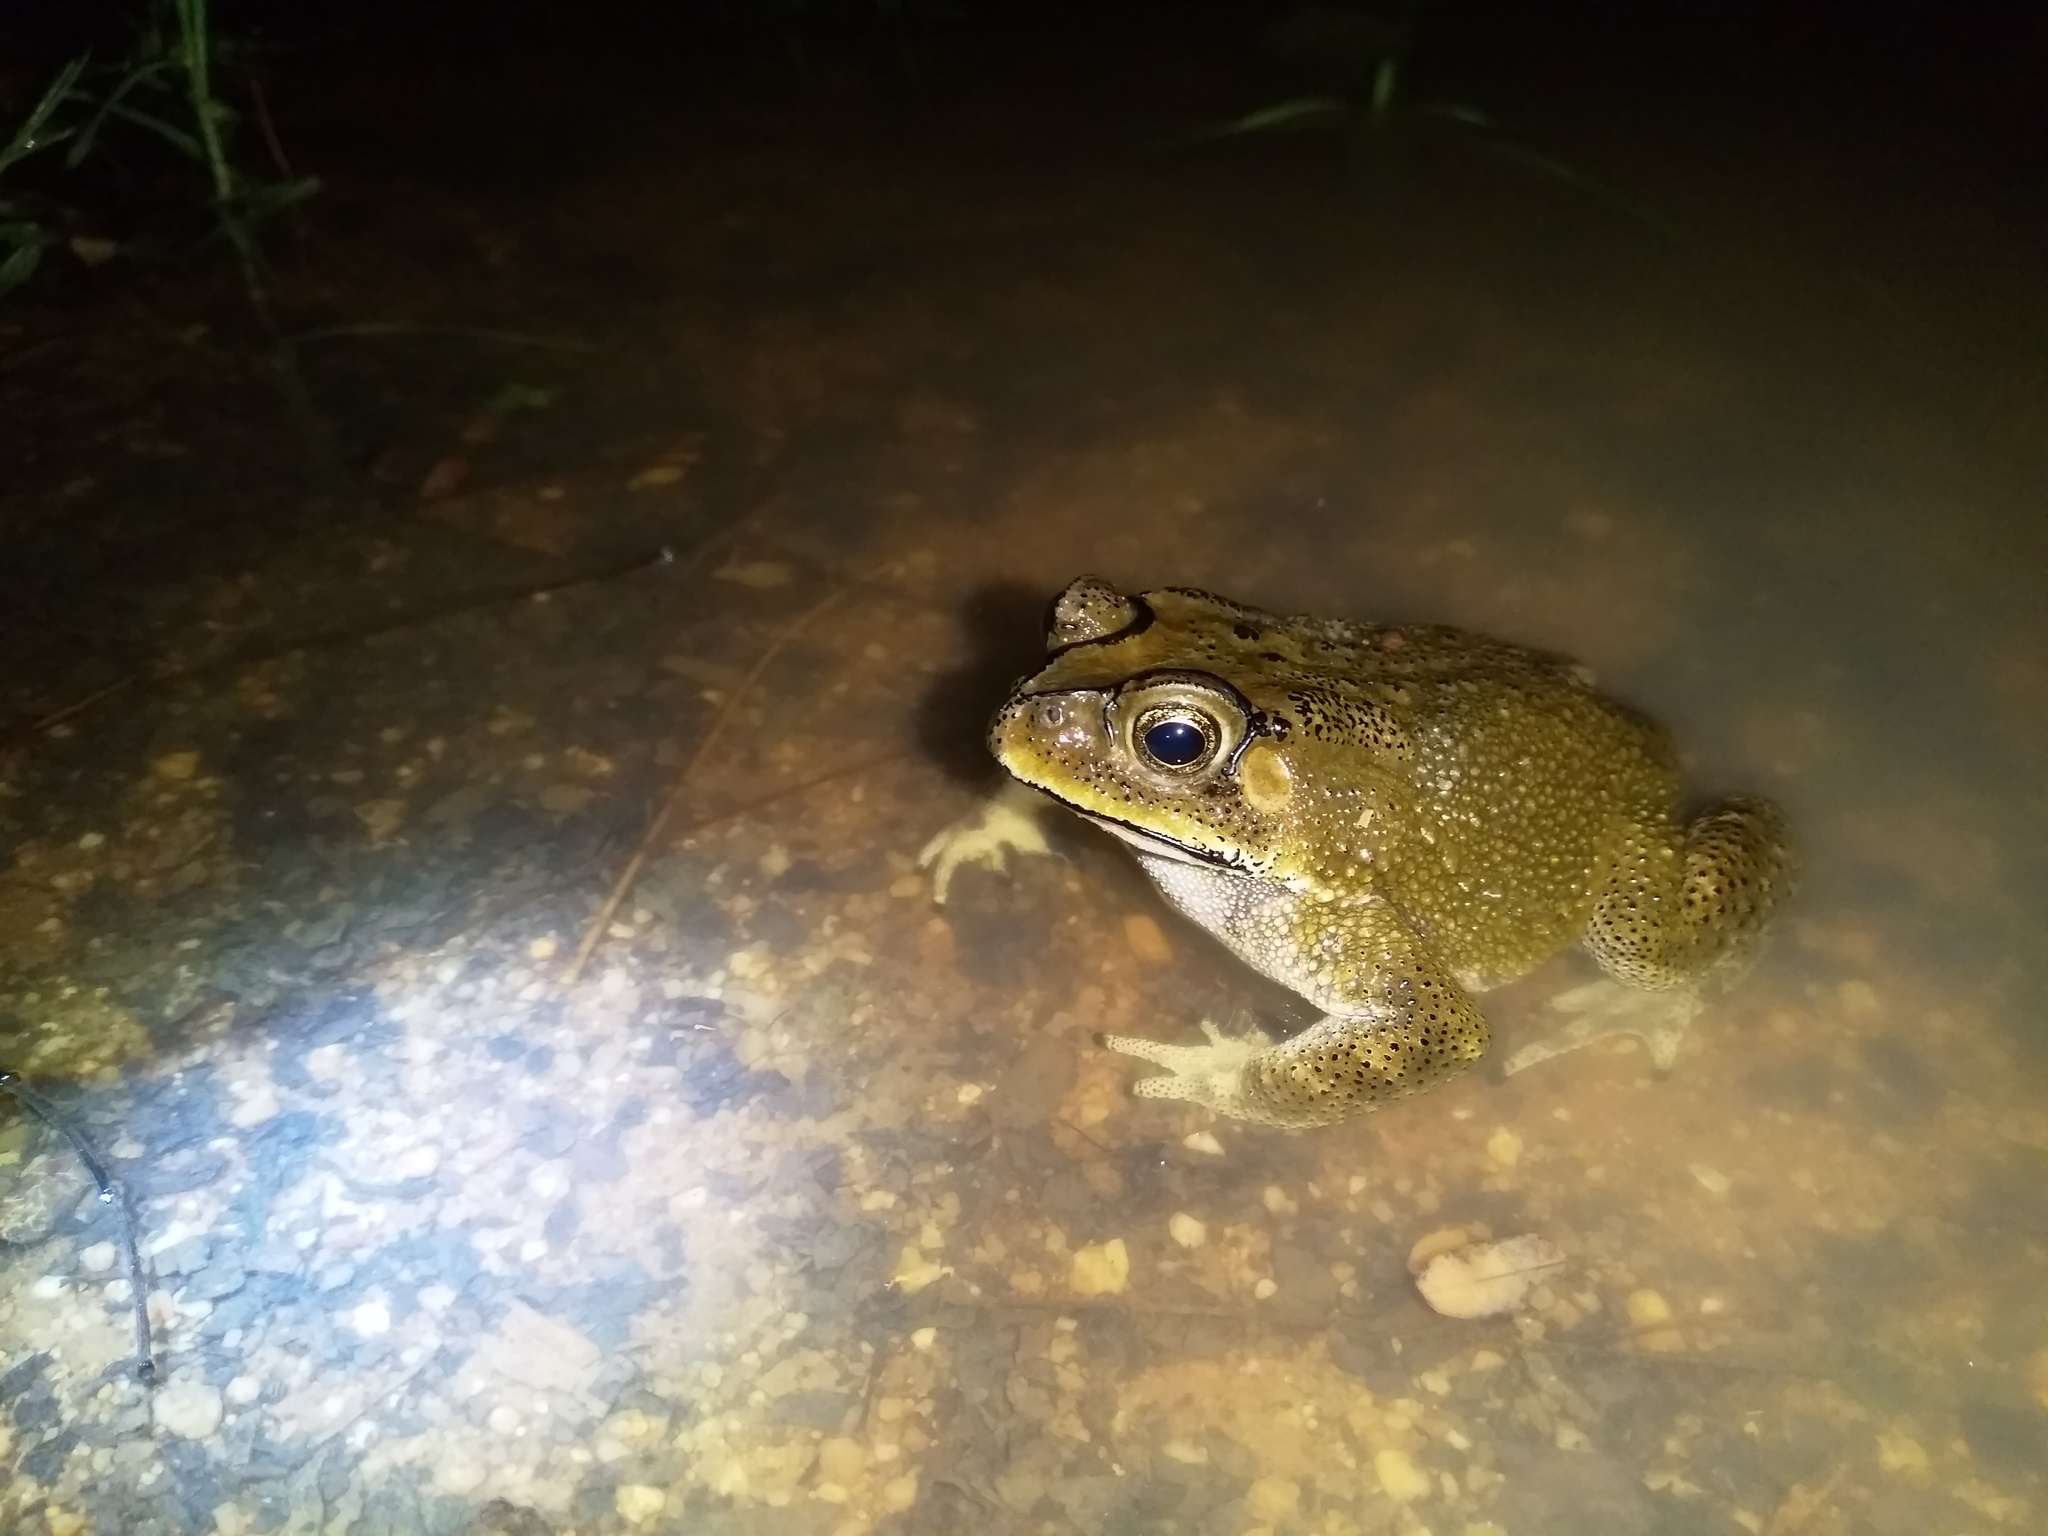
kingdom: Animalia
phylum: Chordata
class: Amphibia
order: Anura
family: Bufonidae
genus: Duttaphrynus
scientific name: Duttaphrynus melanostictus
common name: Common sunda toad
